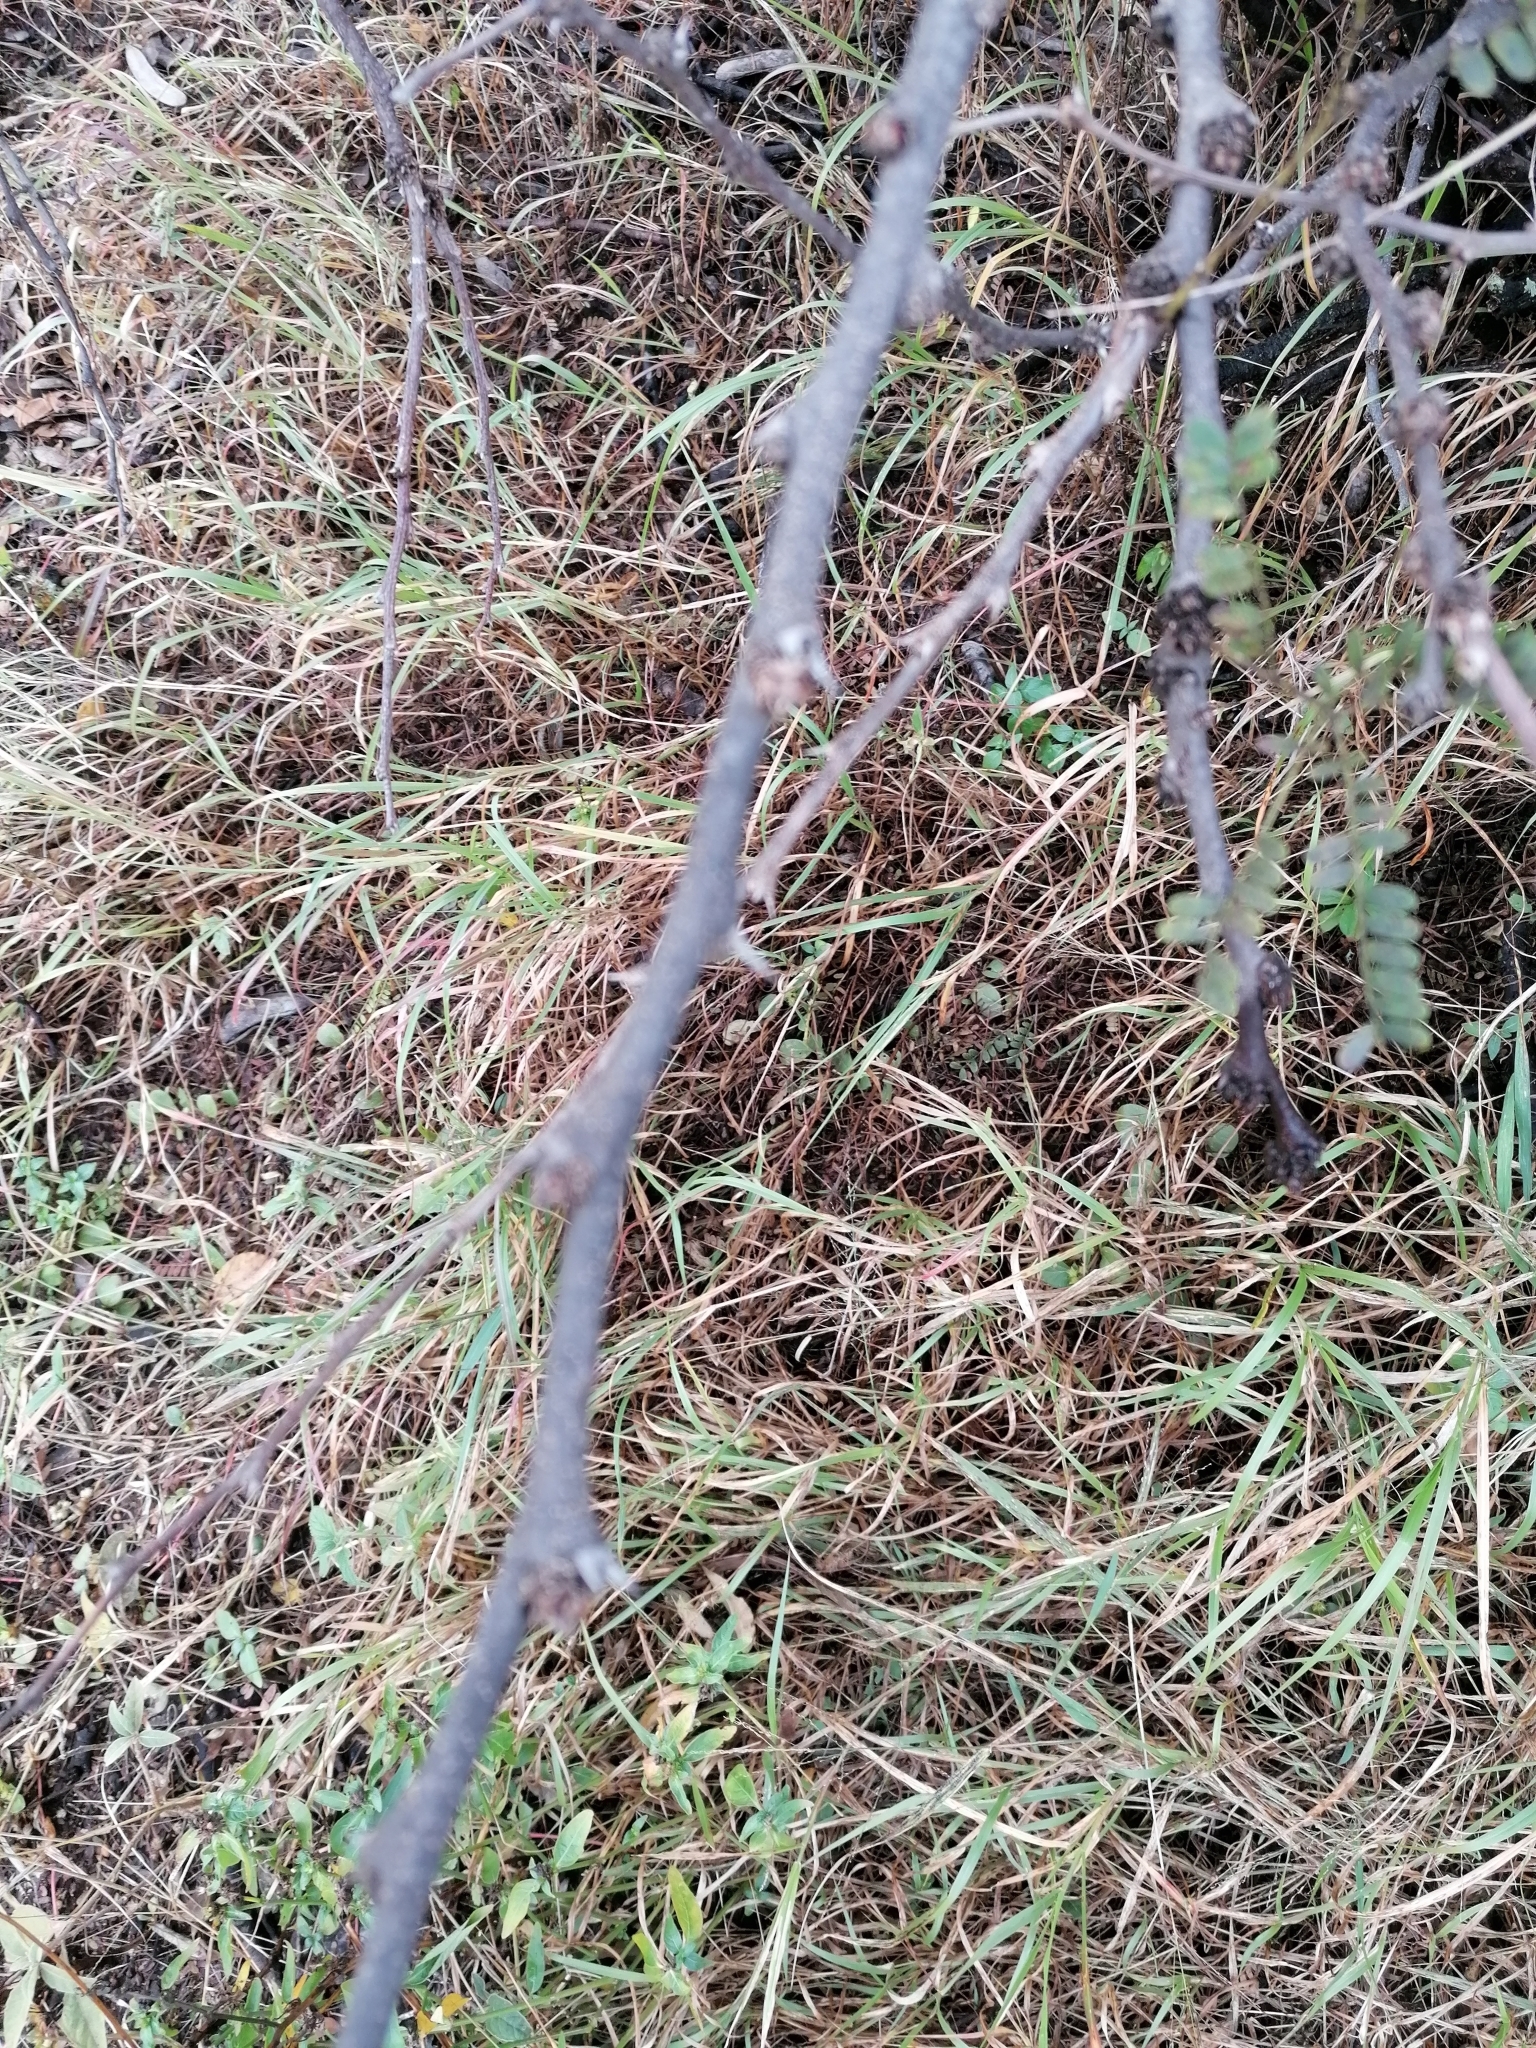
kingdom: Plantae
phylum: Tracheophyta
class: Magnoliopsida
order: Fabales
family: Fabaceae
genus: Vachellia
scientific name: Vachellia robusta
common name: Ankle thorn
